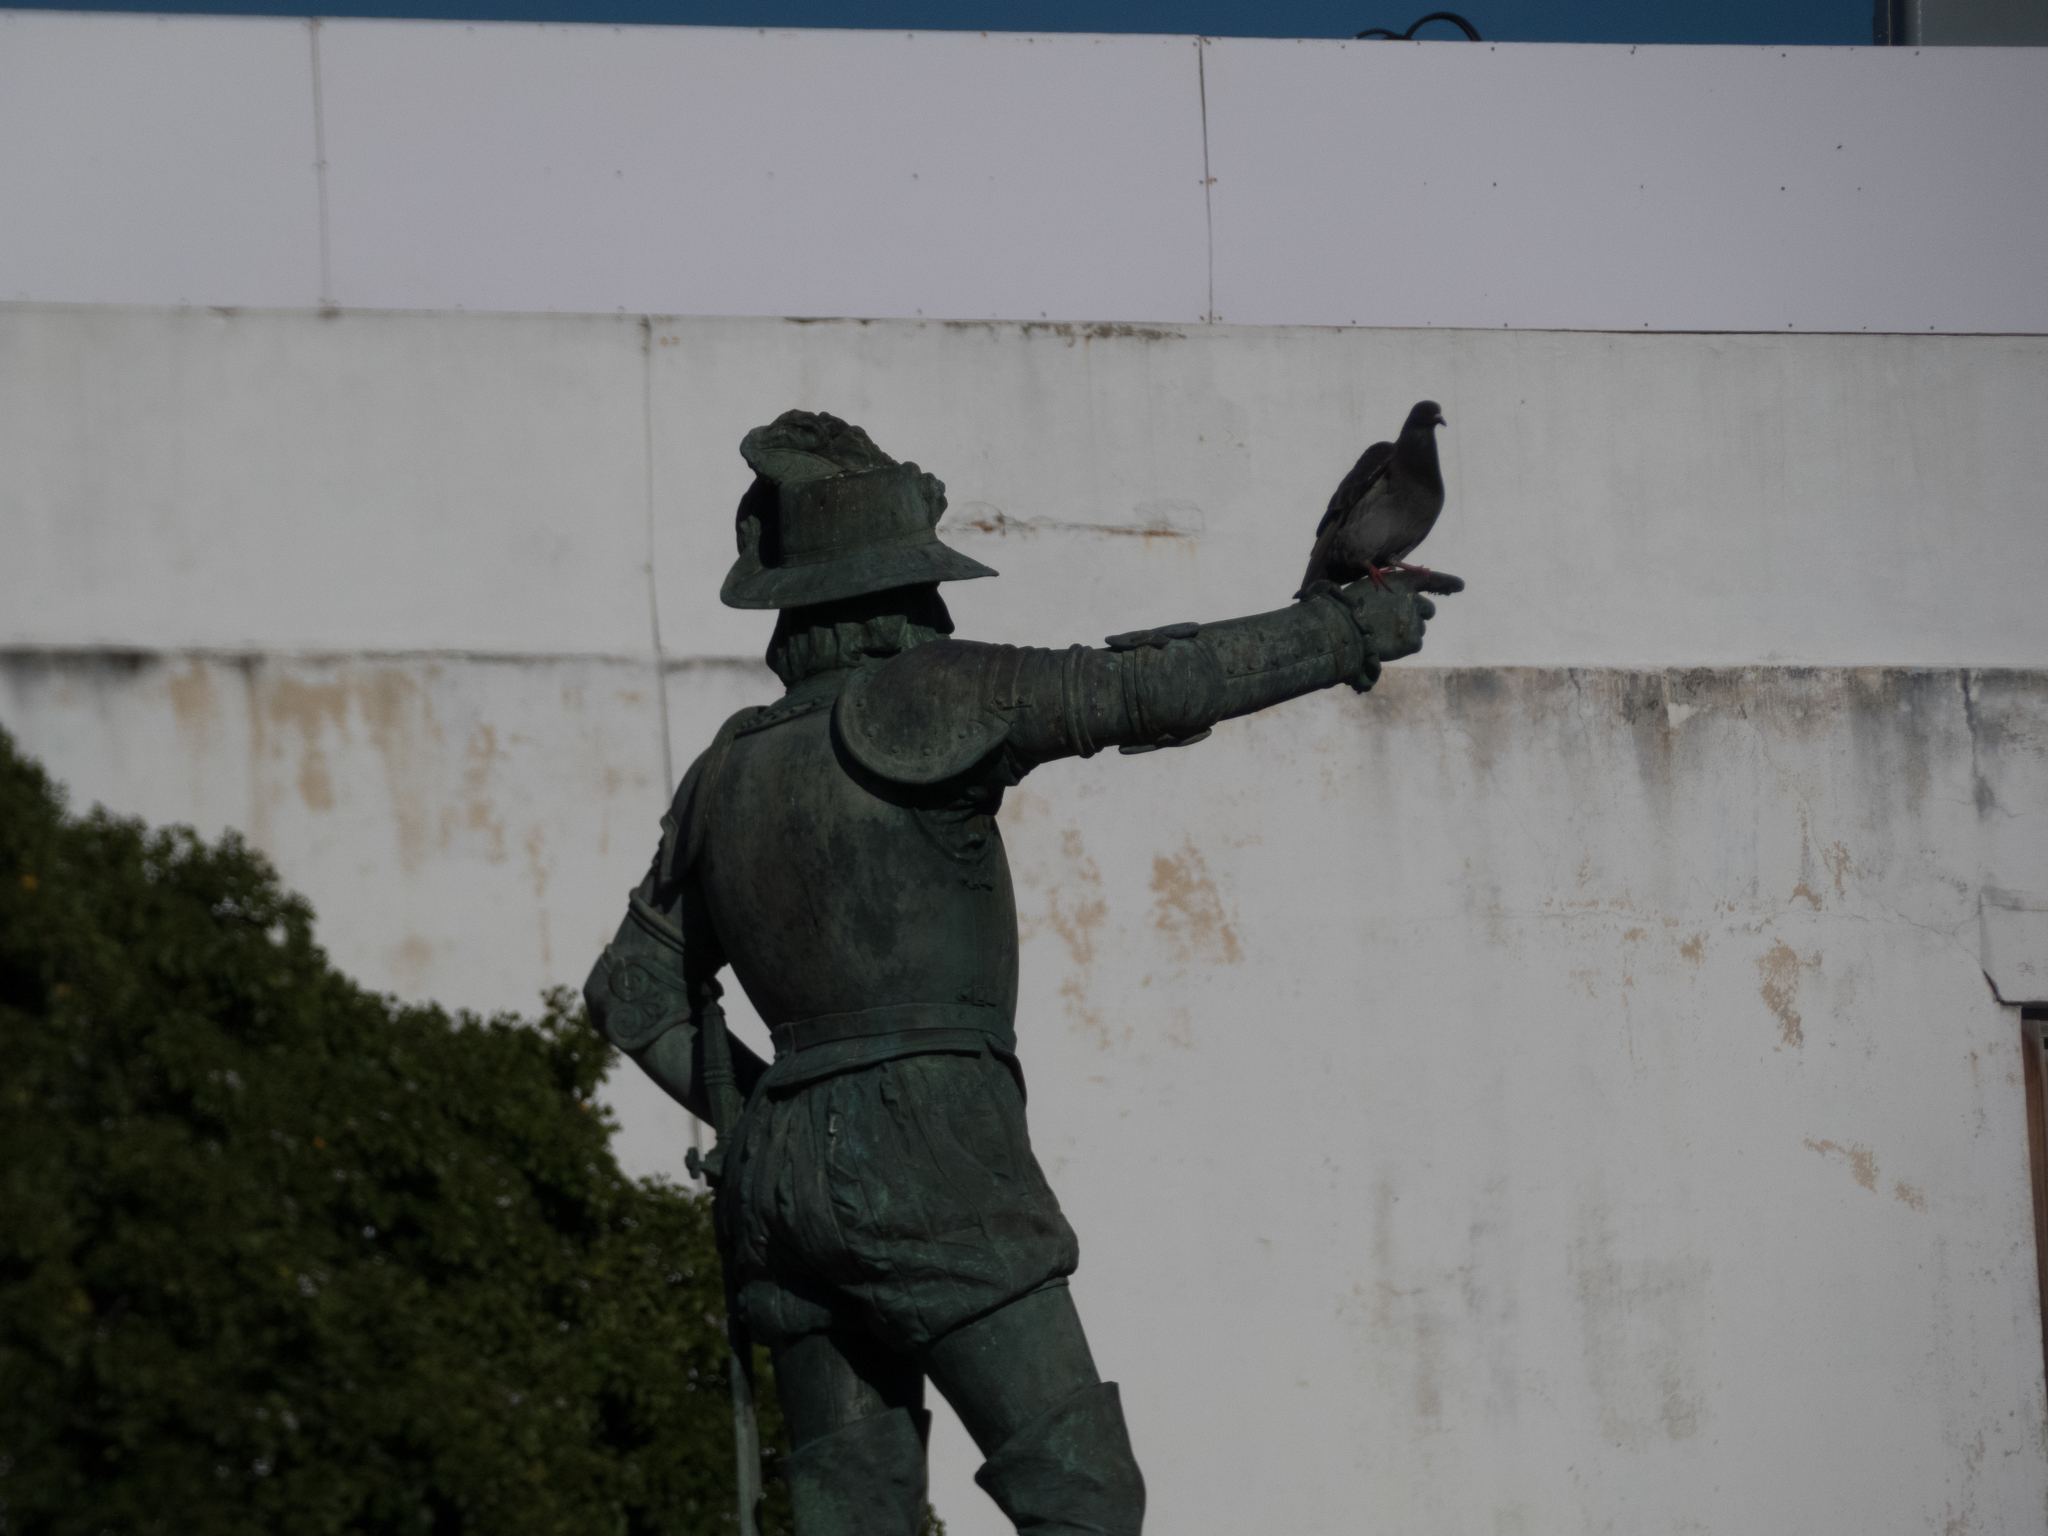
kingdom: Animalia
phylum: Chordata
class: Aves
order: Columbiformes
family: Columbidae
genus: Columba
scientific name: Columba livia
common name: Rock pigeon
